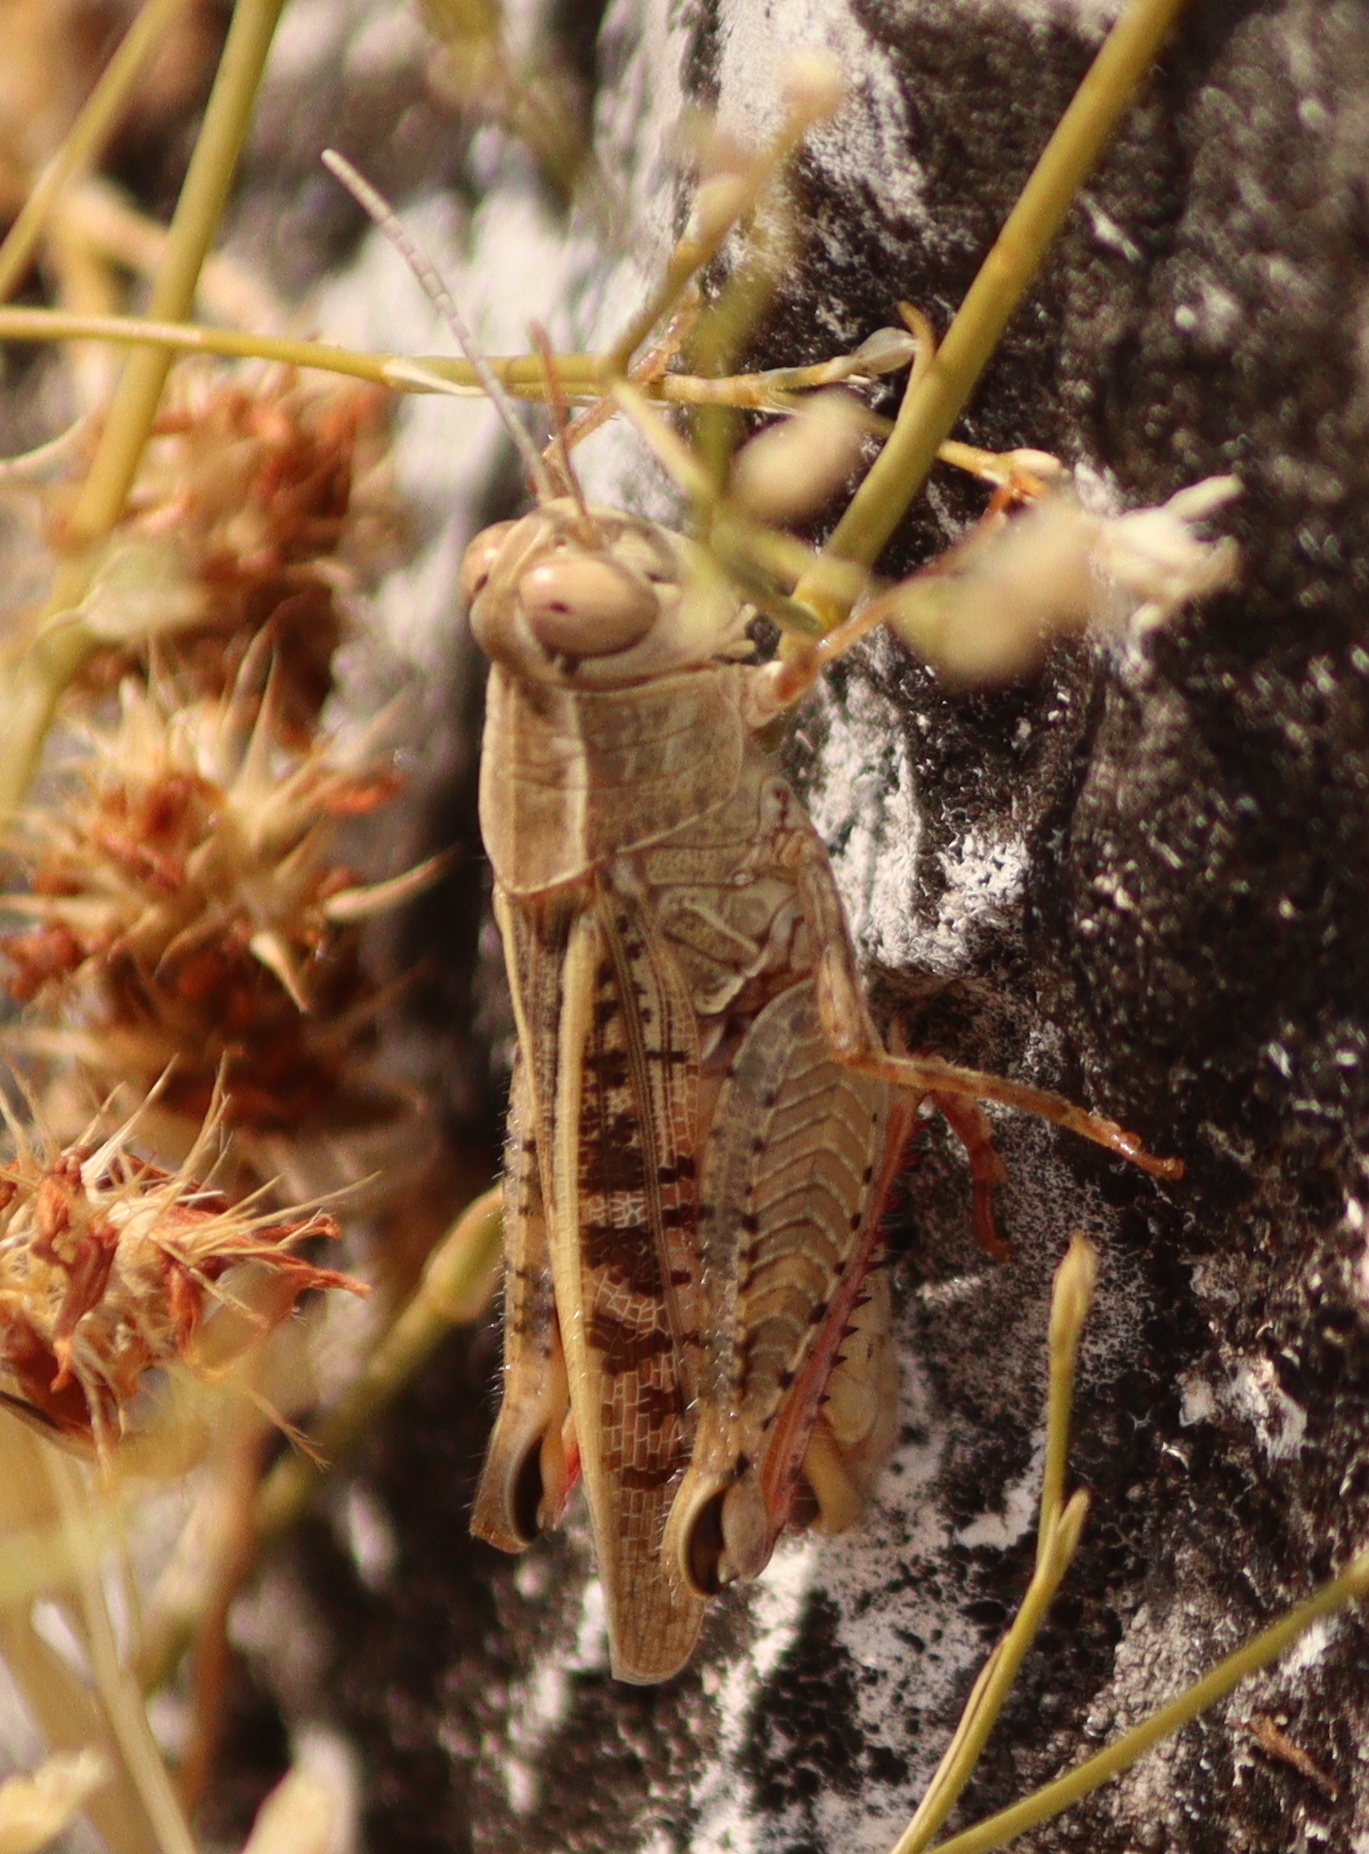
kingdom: Animalia
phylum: Arthropoda
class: Insecta
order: Orthoptera
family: Acrididae
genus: Calliptamus
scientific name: Calliptamus italicus
